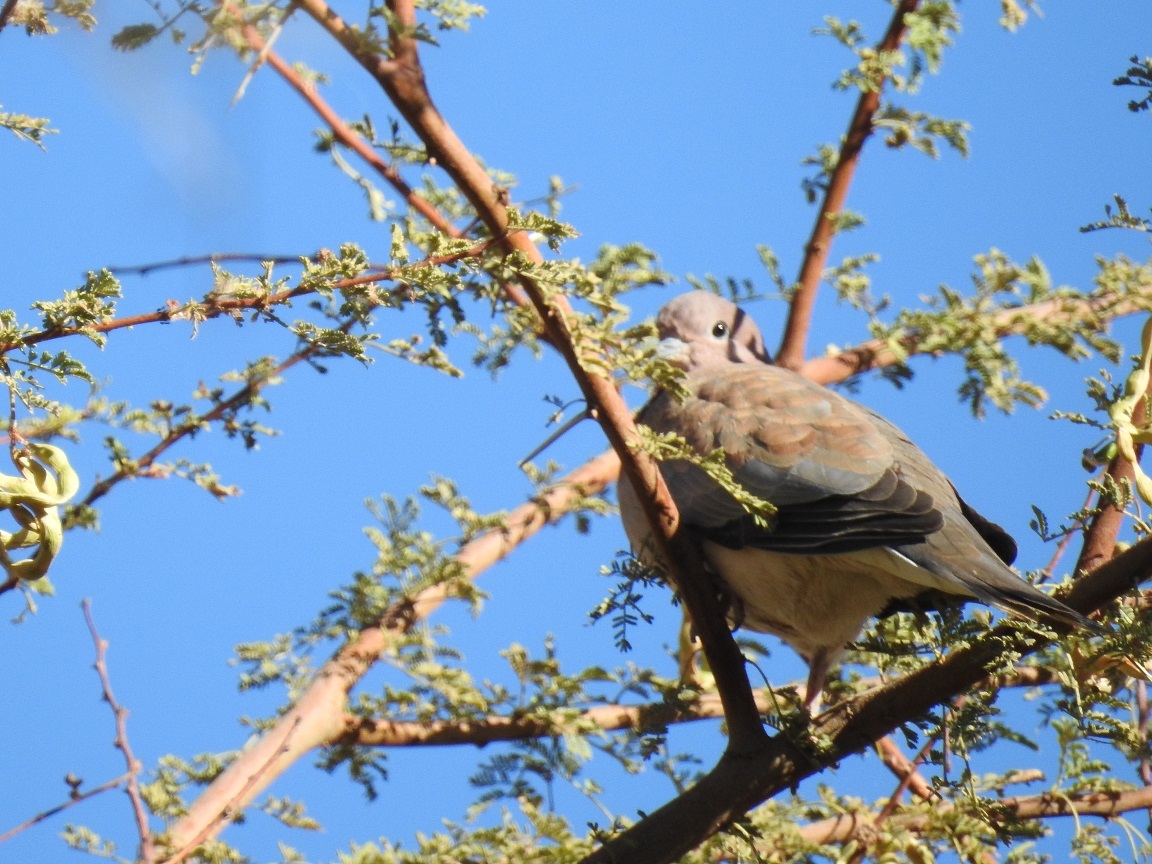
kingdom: Animalia
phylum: Chordata
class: Aves
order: Columbiformes
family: Columbidae
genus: Spilopelia
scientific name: Spilopelia senegalensis
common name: Laughing dove
